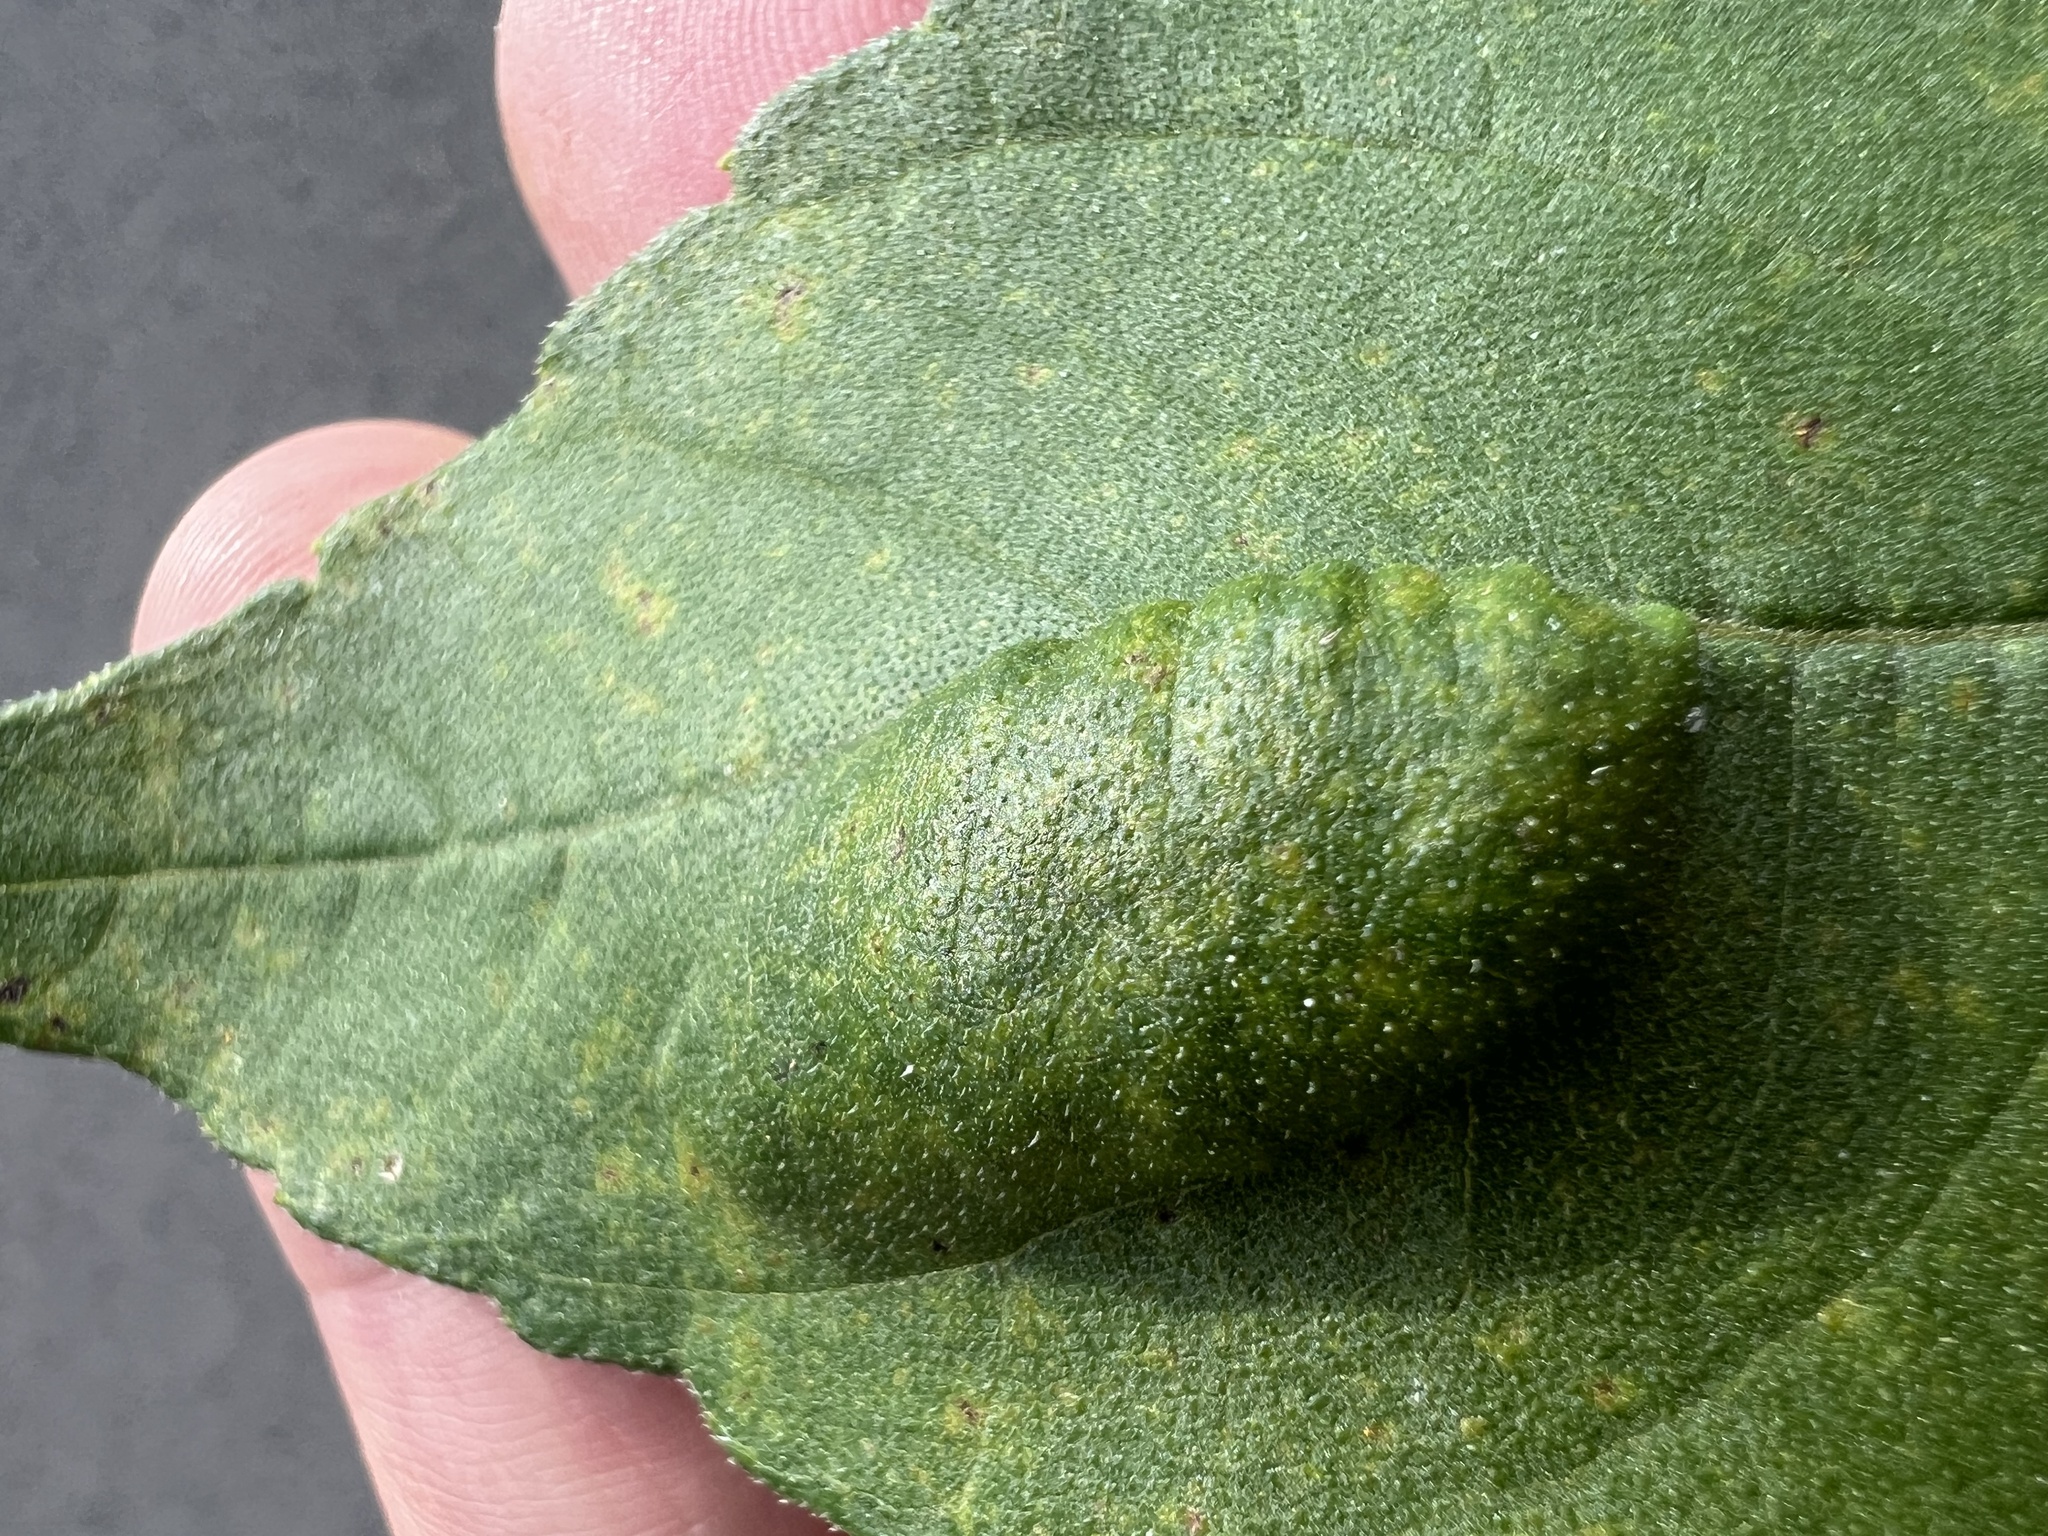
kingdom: Fungi
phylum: Basidiomycota
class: Pucciniomycetes
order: Pucciniales
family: Coleosporiaceae
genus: Coleosporium
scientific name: Coleosporium helianthi
